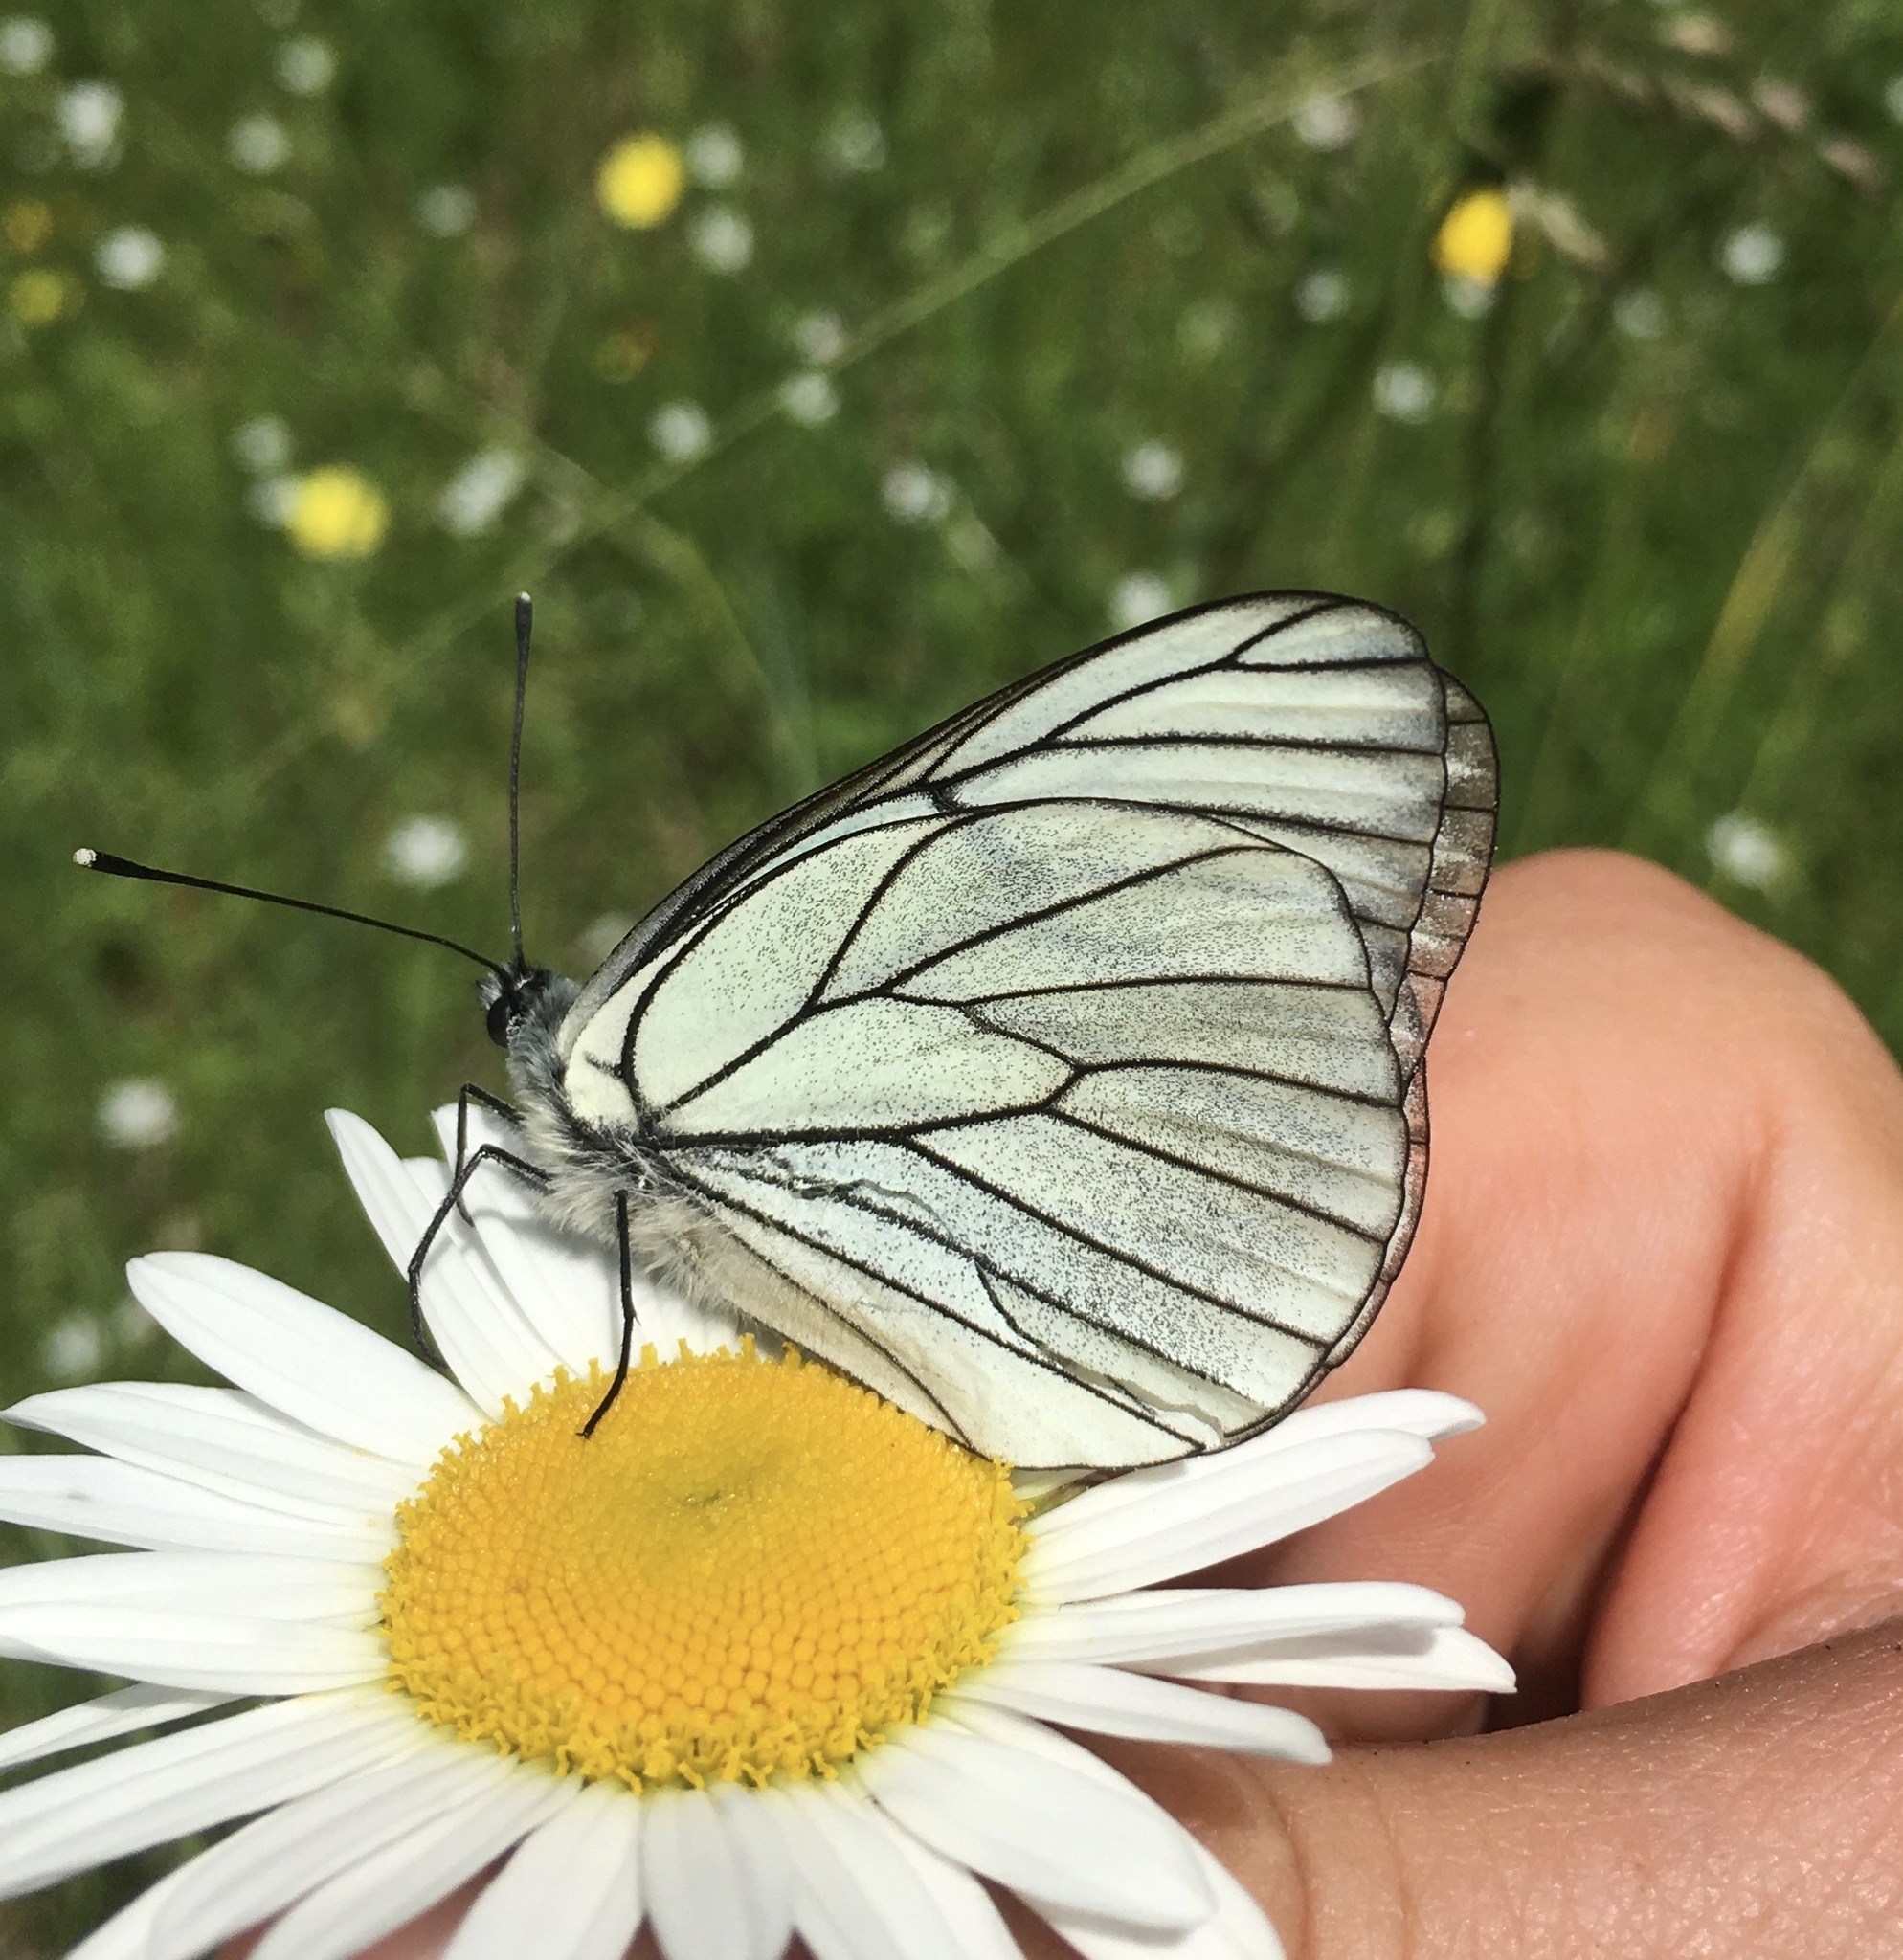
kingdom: Animalia
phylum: Arthropoda
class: Insecta
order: Lepidoptera
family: Pieridae
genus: Aporia
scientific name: Aporia crataegi
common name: Black-veined white
